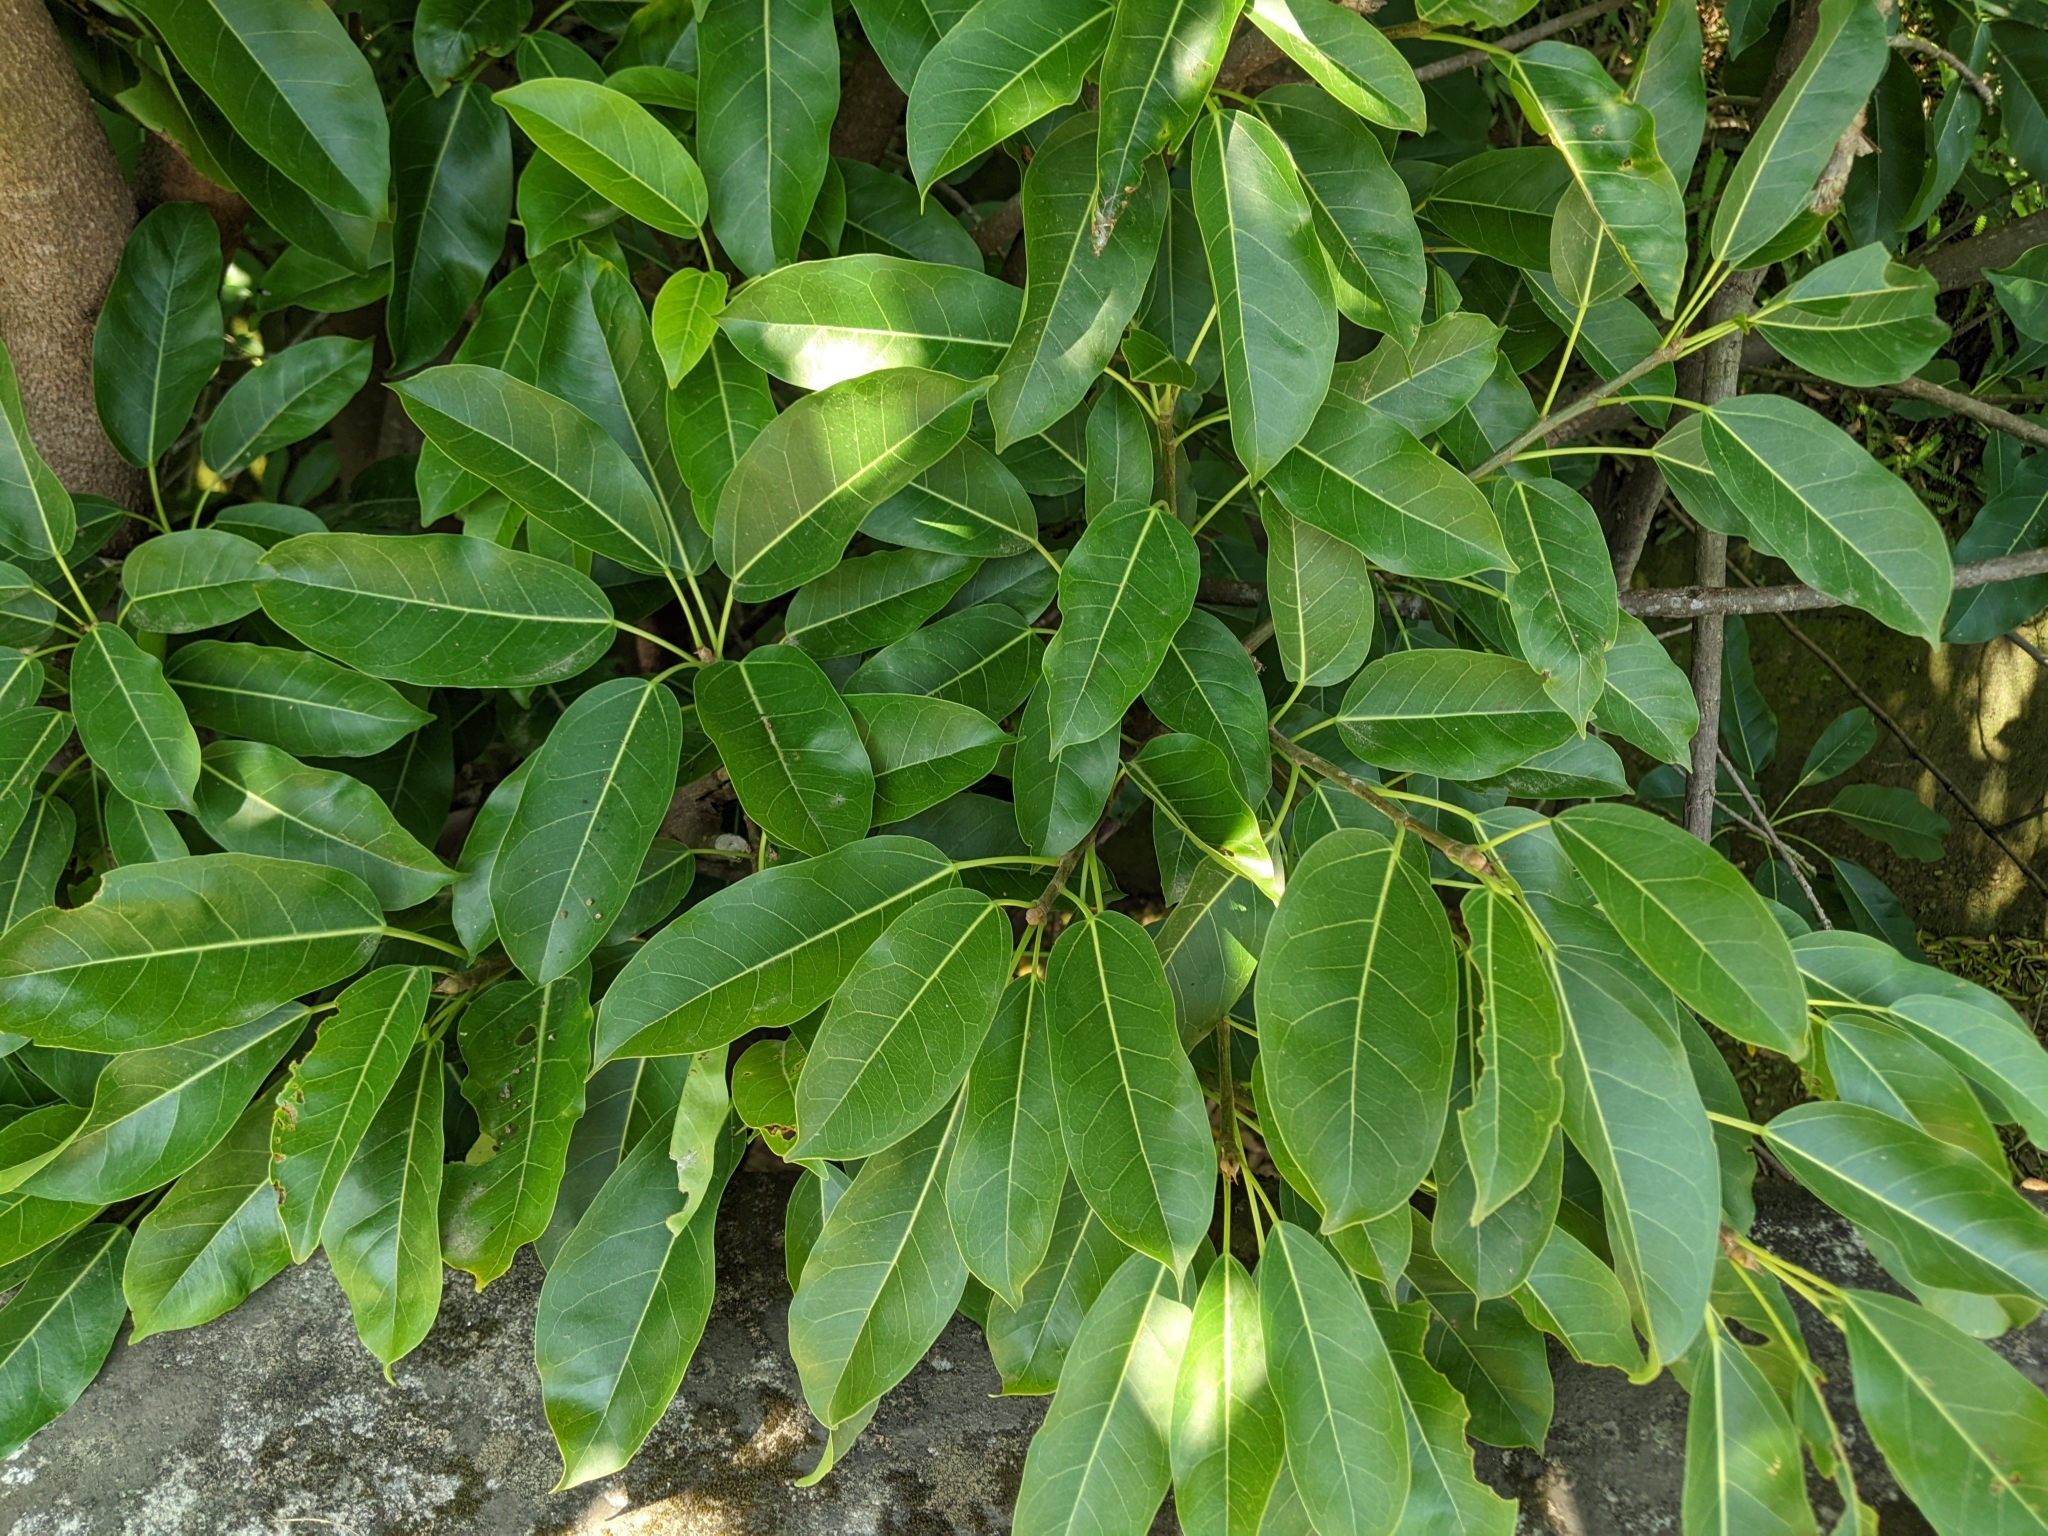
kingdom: Plantae
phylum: Tracheophyta
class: Magnoliopsida
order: Rosales
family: Moraceae
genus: Ficus
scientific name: Ficus subpisocarpa
